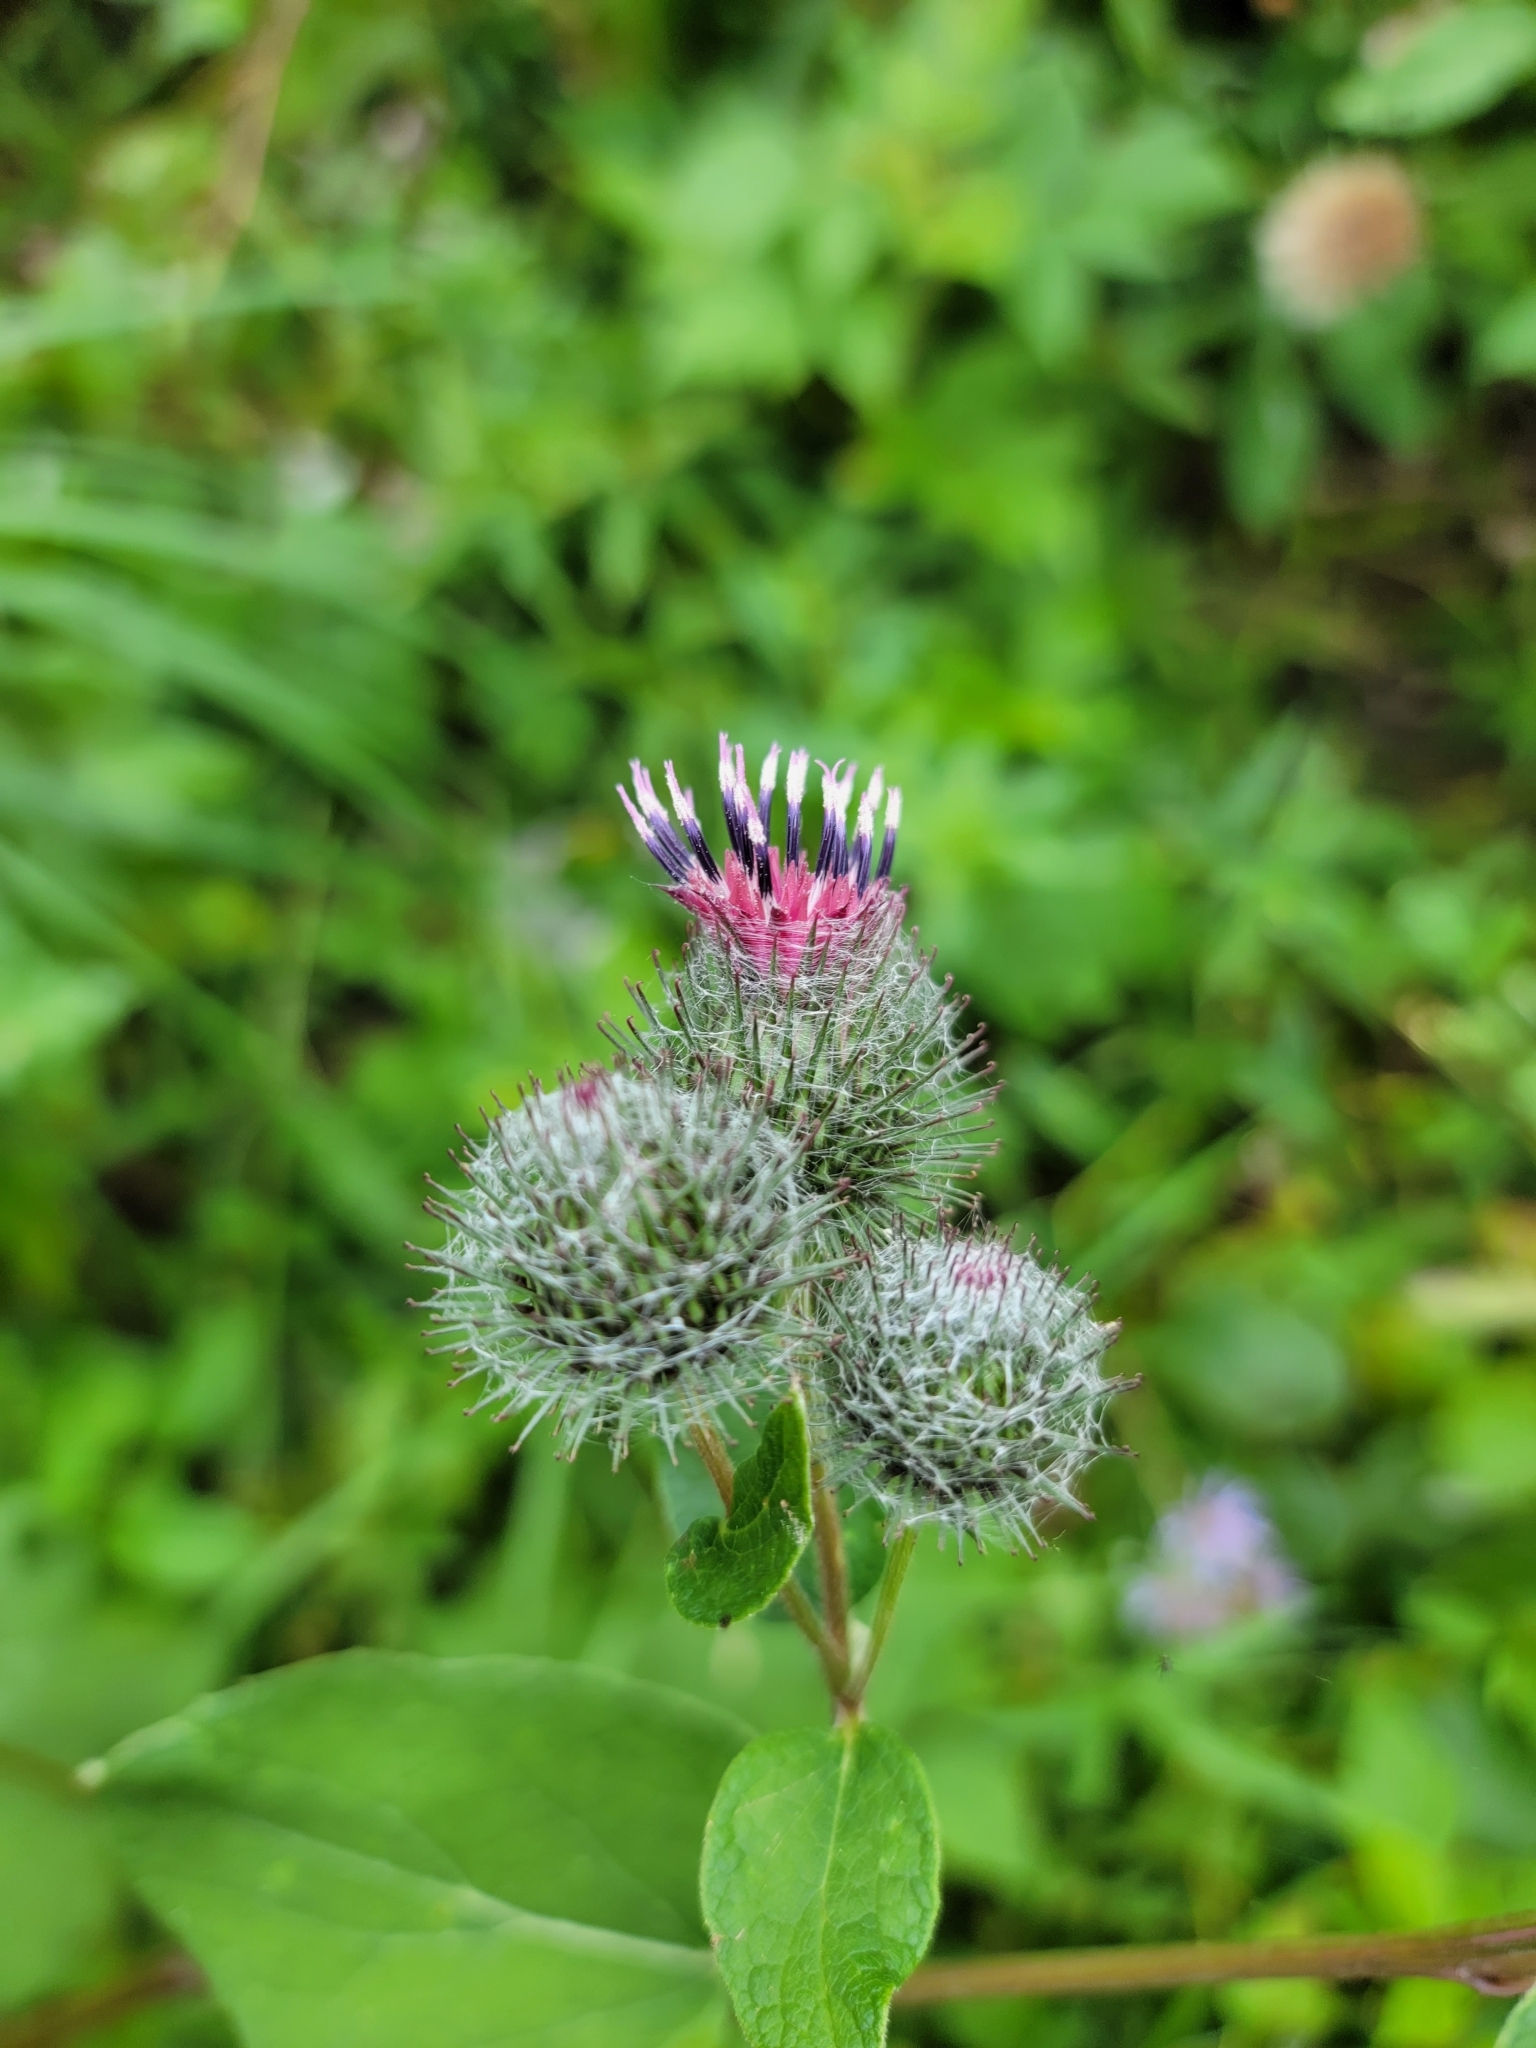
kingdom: Plantae
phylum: Tracheophyta
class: Magnoliopsida
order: Asterales
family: Asteraceae
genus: Arctium
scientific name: Arctium tomentosum
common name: Woolly burdock
